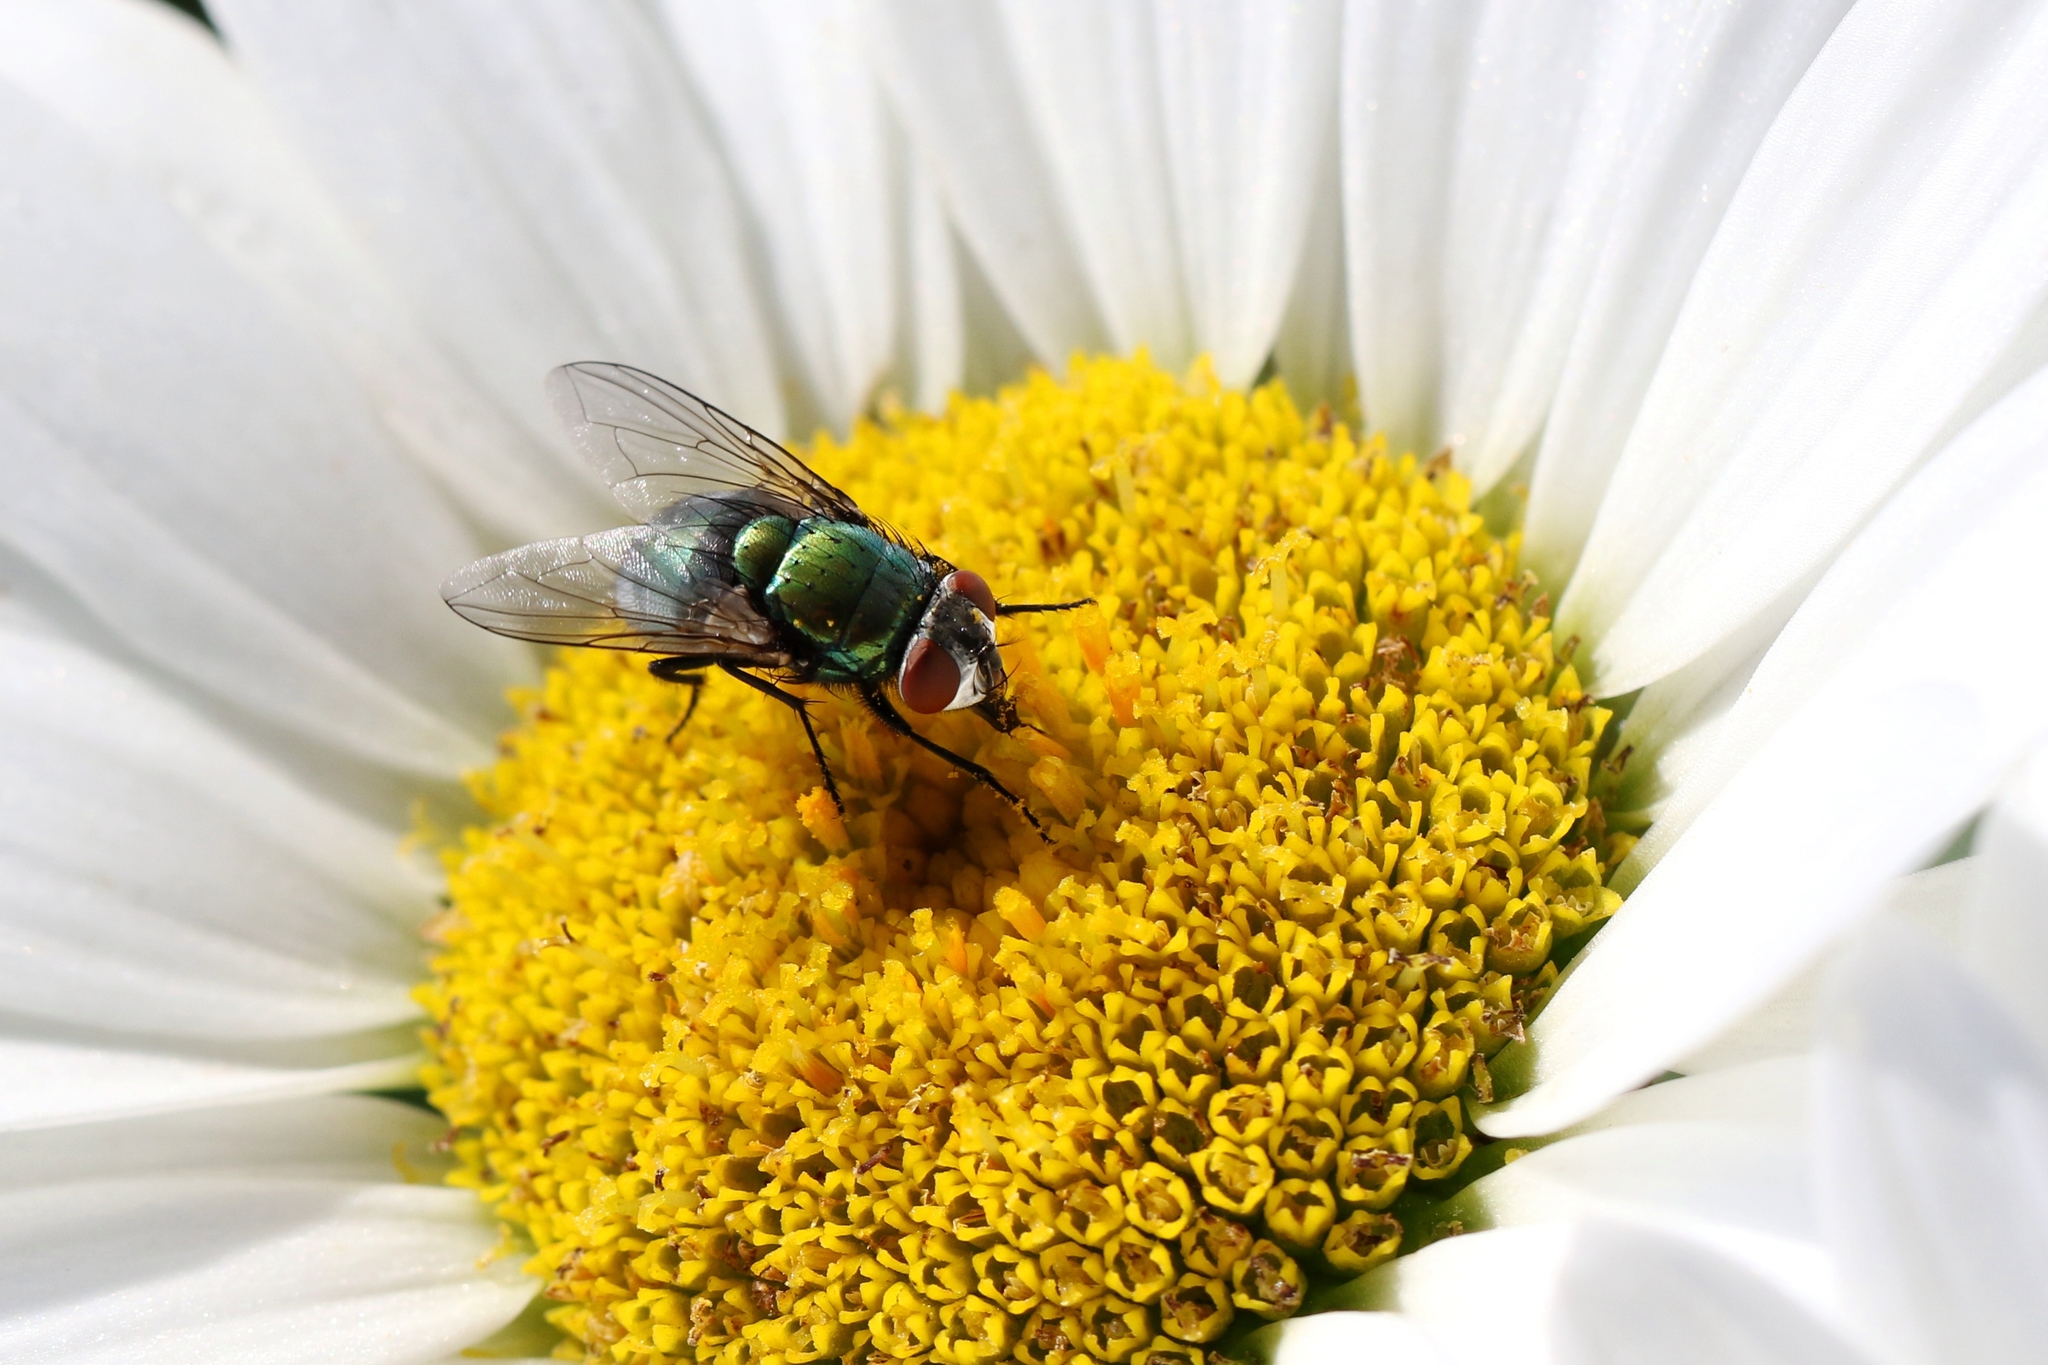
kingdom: Animalia
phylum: Arthropoda
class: Insecta
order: Diptera
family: Calliphoridae
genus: Lucilia
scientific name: Lucilia sericata
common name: Blow fly
